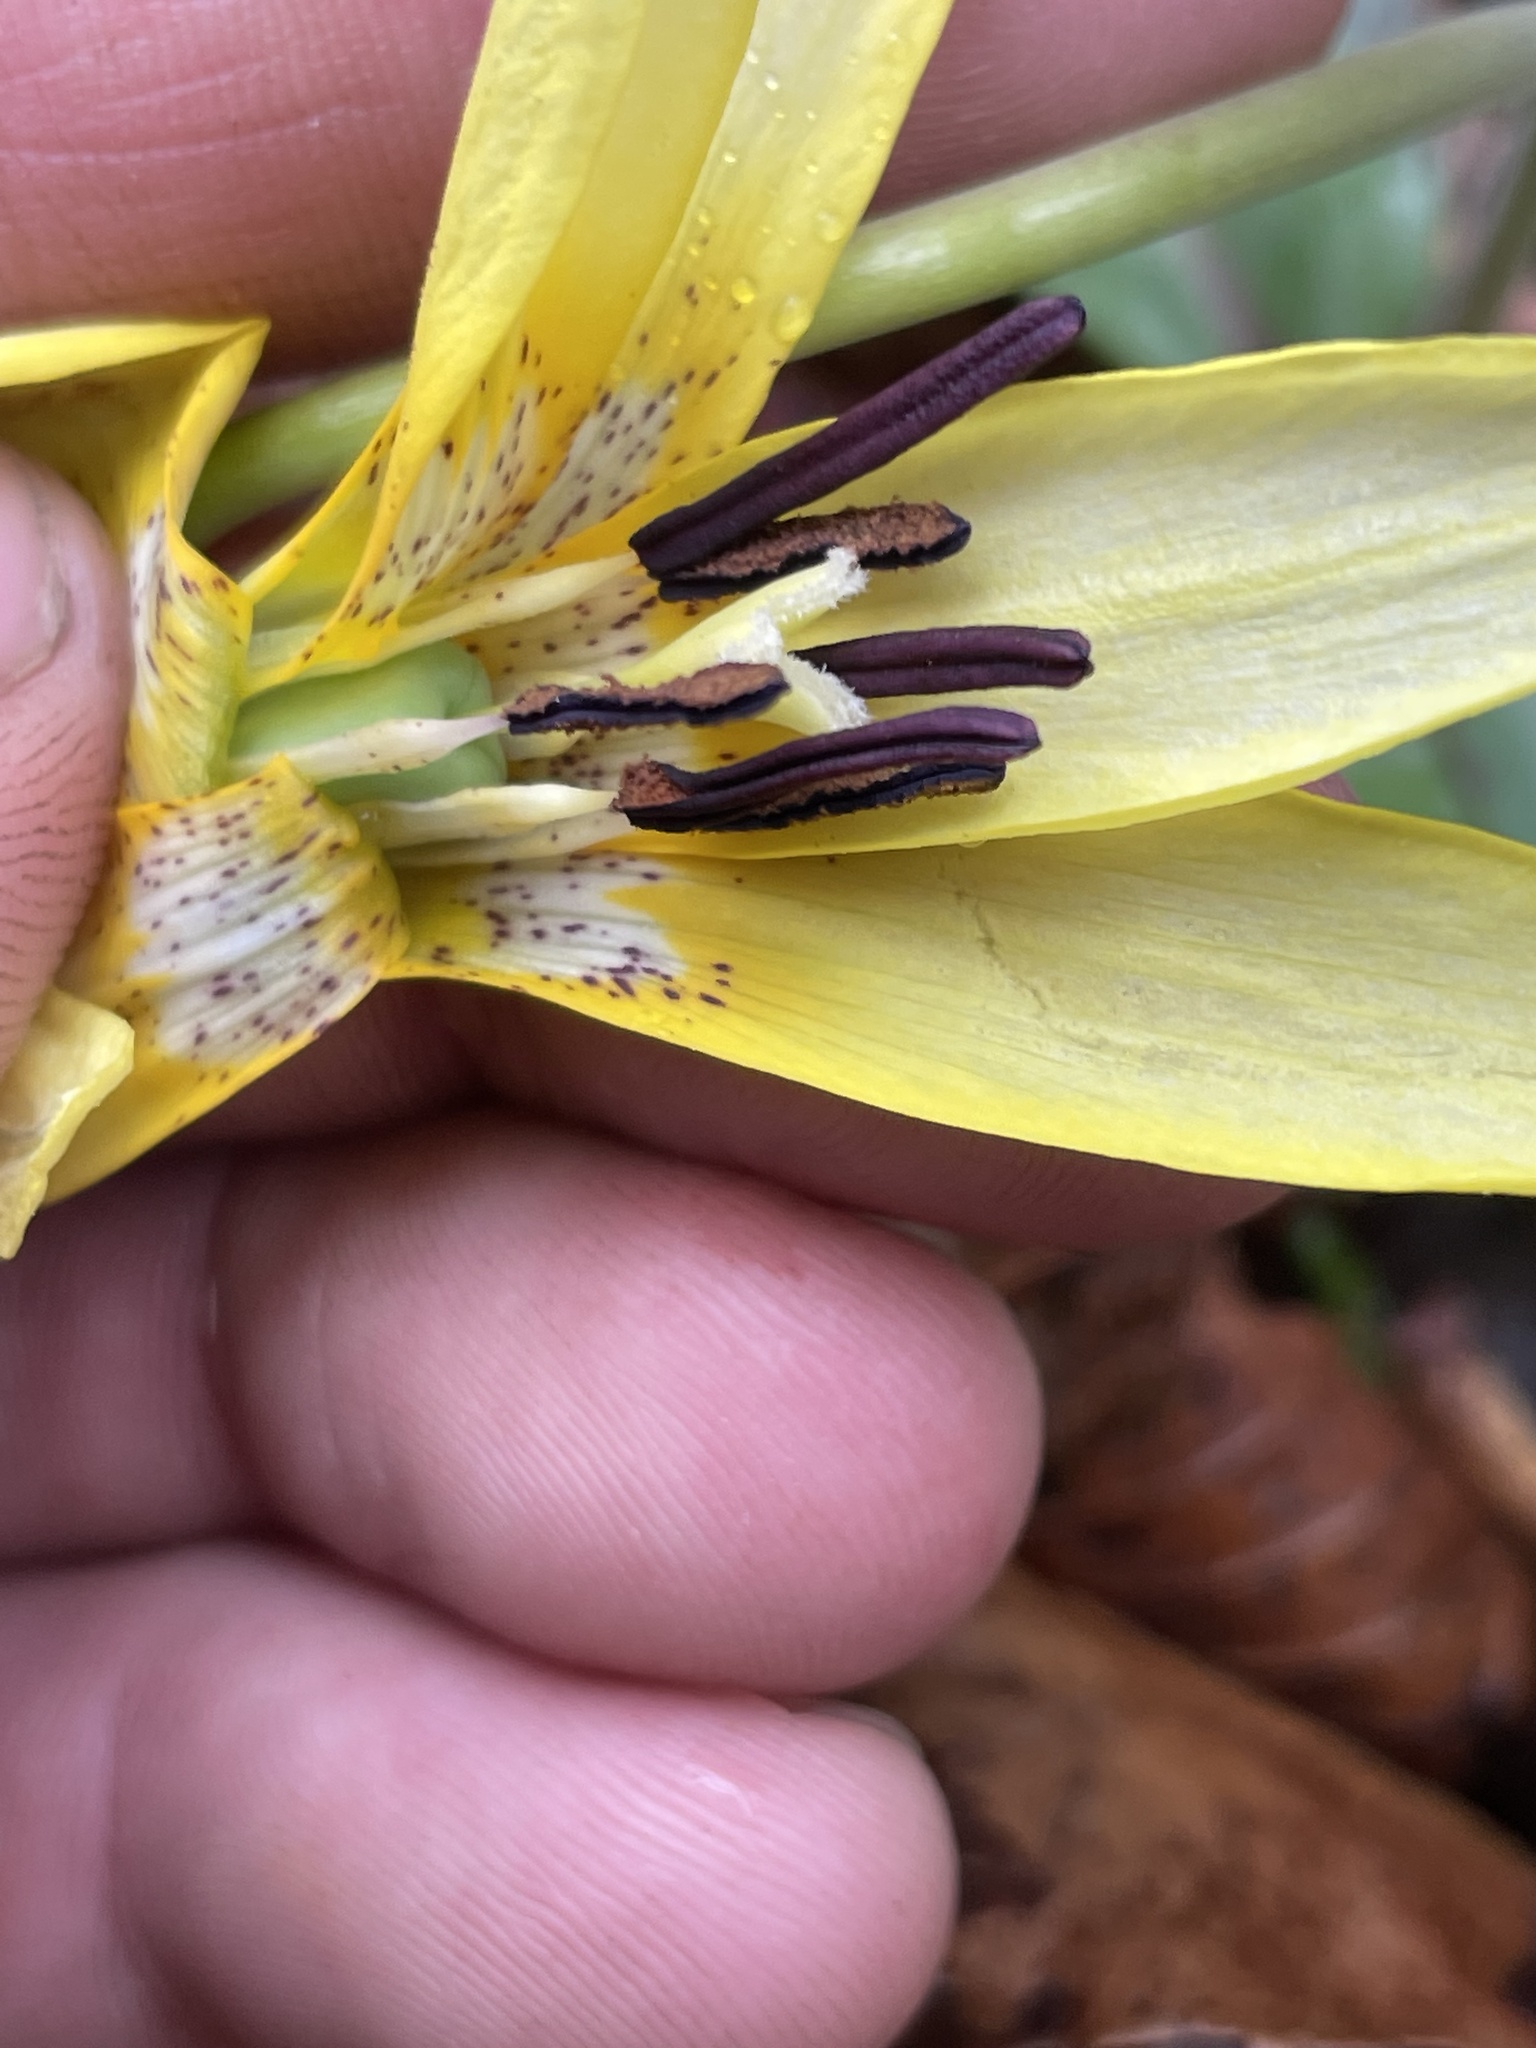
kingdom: Plantae
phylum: Tracheophyta
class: Liliopsida
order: Liliales
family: Liliaceae
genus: Erythronium
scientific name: Erythronium umbilicatum
